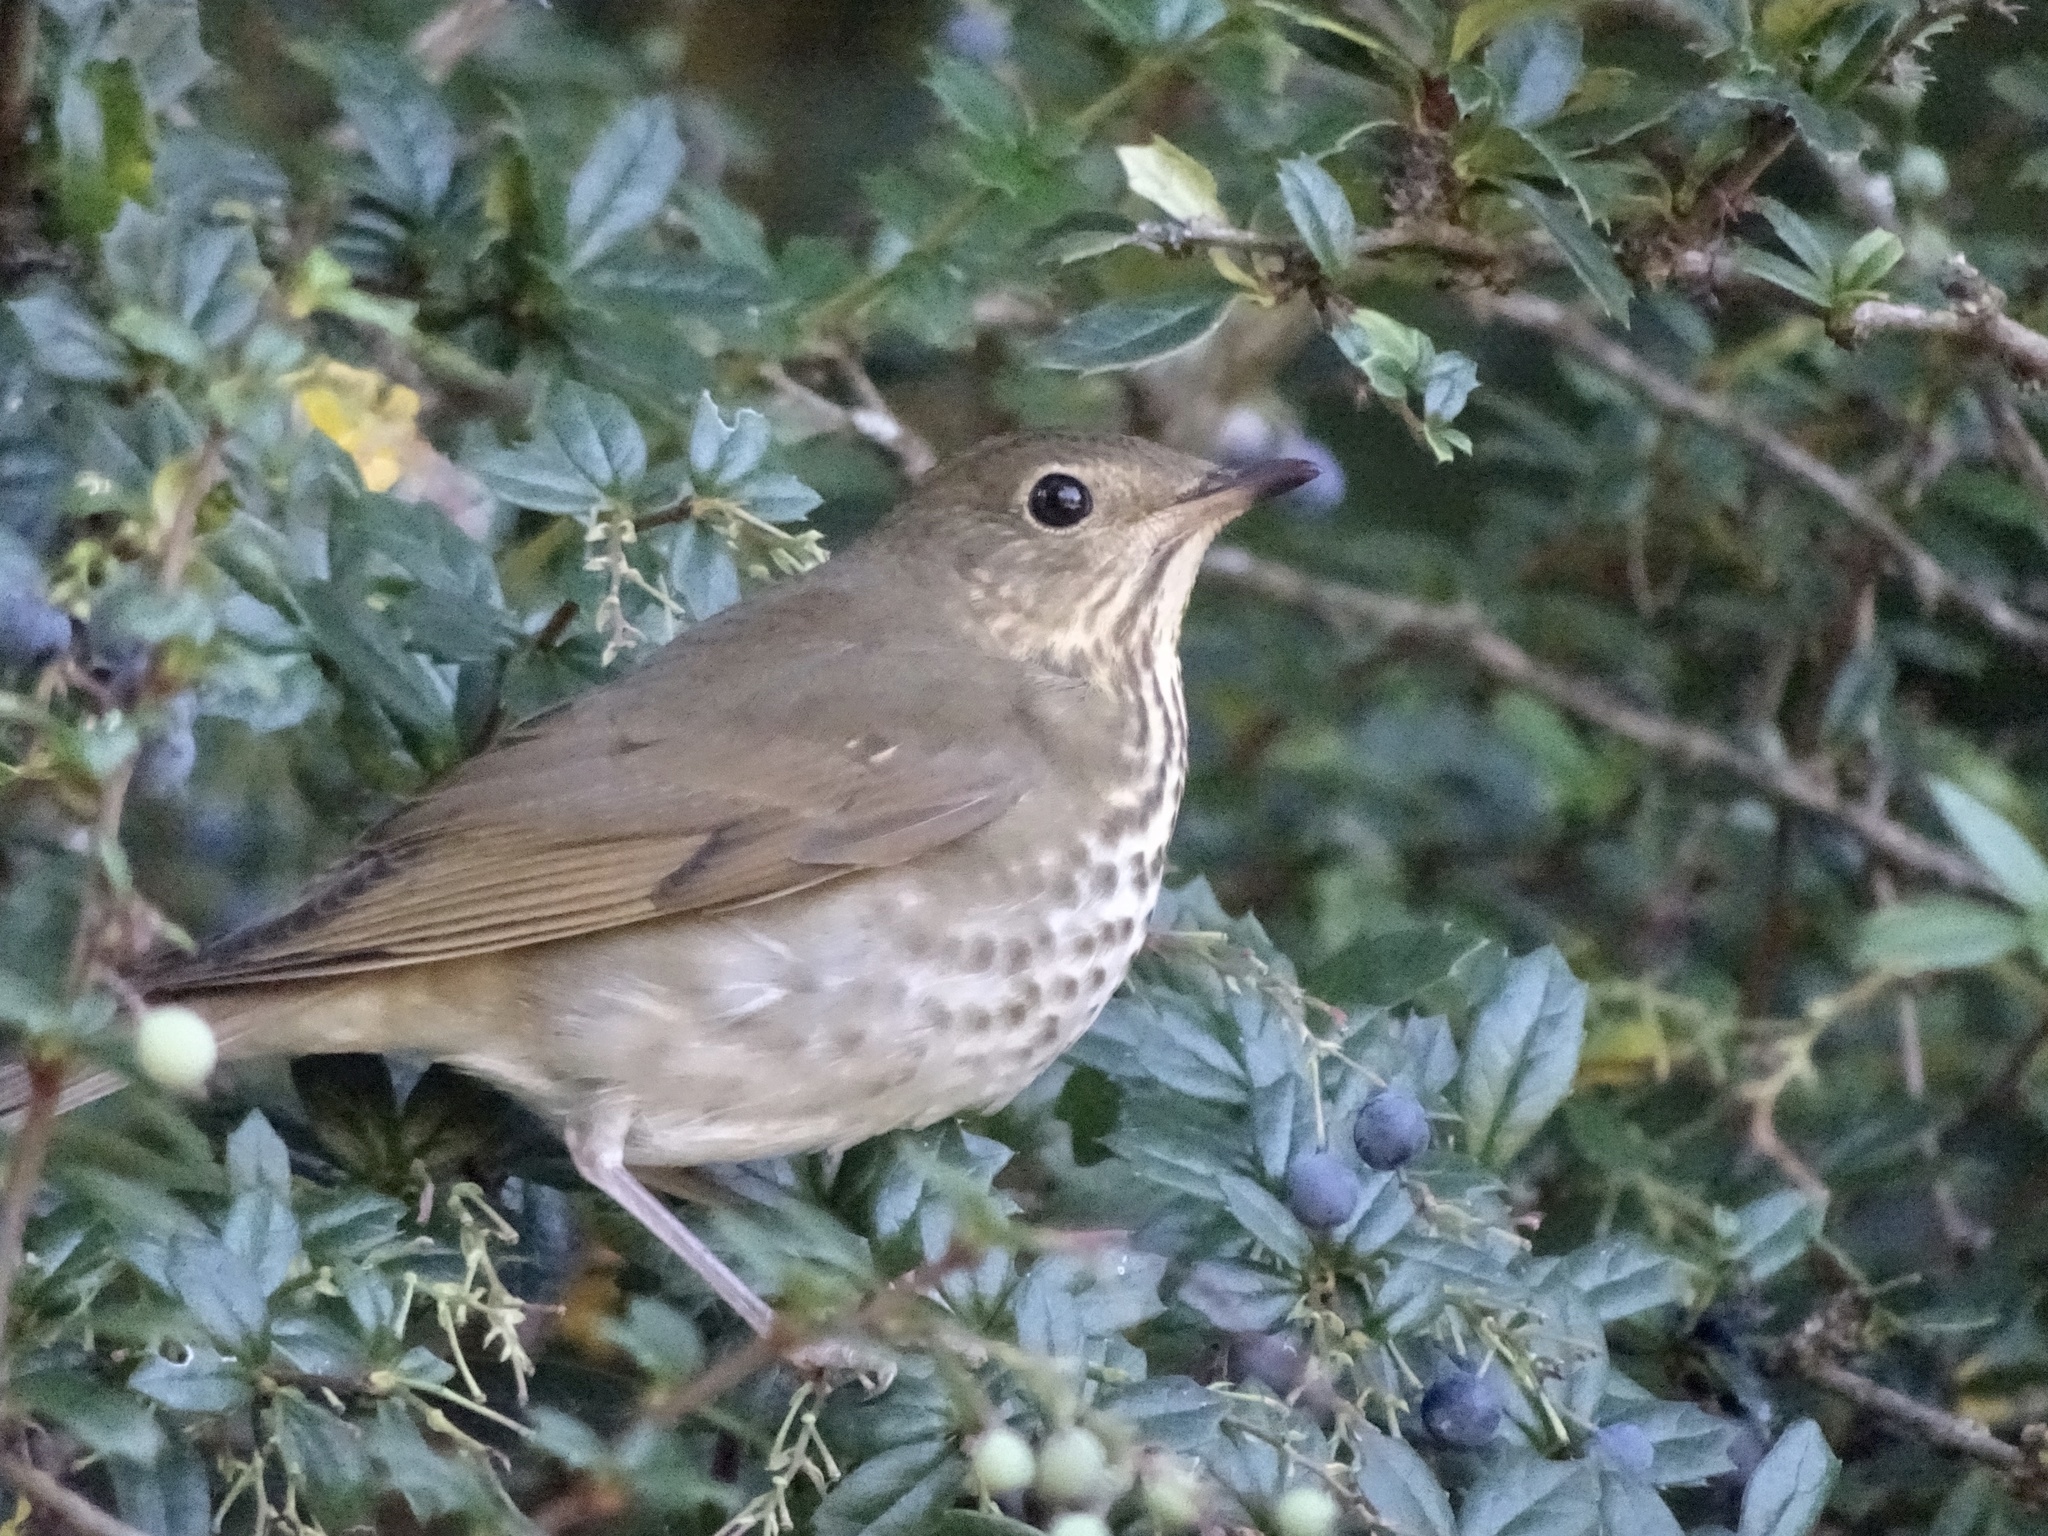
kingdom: Animalia
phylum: Chordata
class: Aves
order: Passeriformes
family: Turdidae
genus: Catharus
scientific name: Catharus guttatus
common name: Hermit thrush
